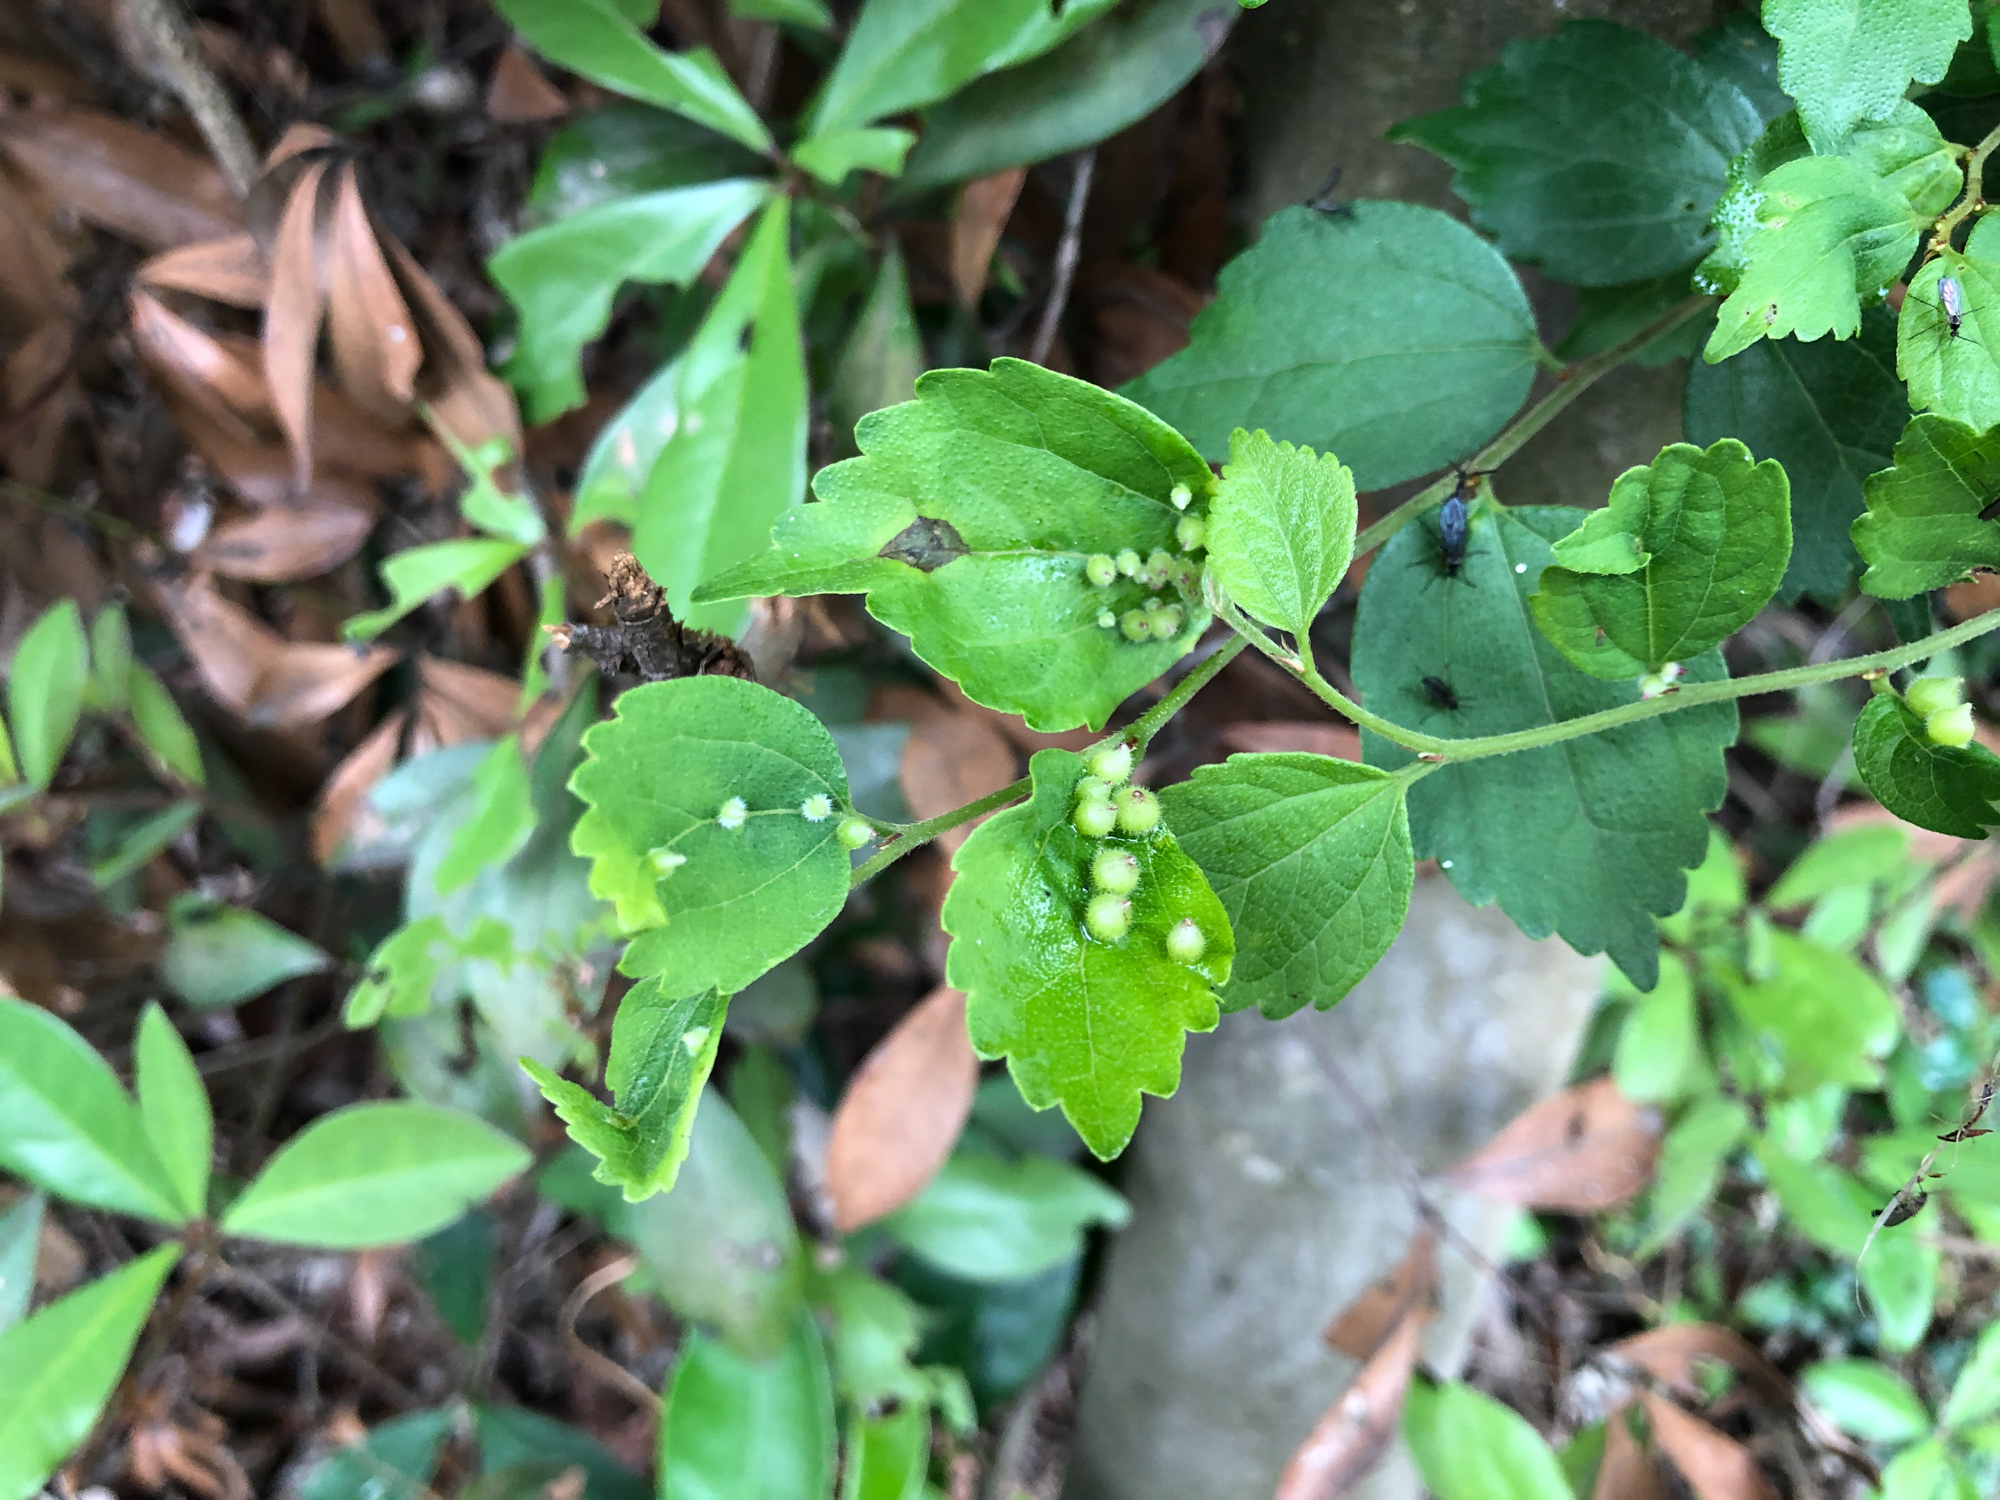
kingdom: Plantae
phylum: Tracheophyta
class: Magnoliopsida
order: Rosales
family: Cannabaceae
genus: Celtis
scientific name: Celtis biondii
